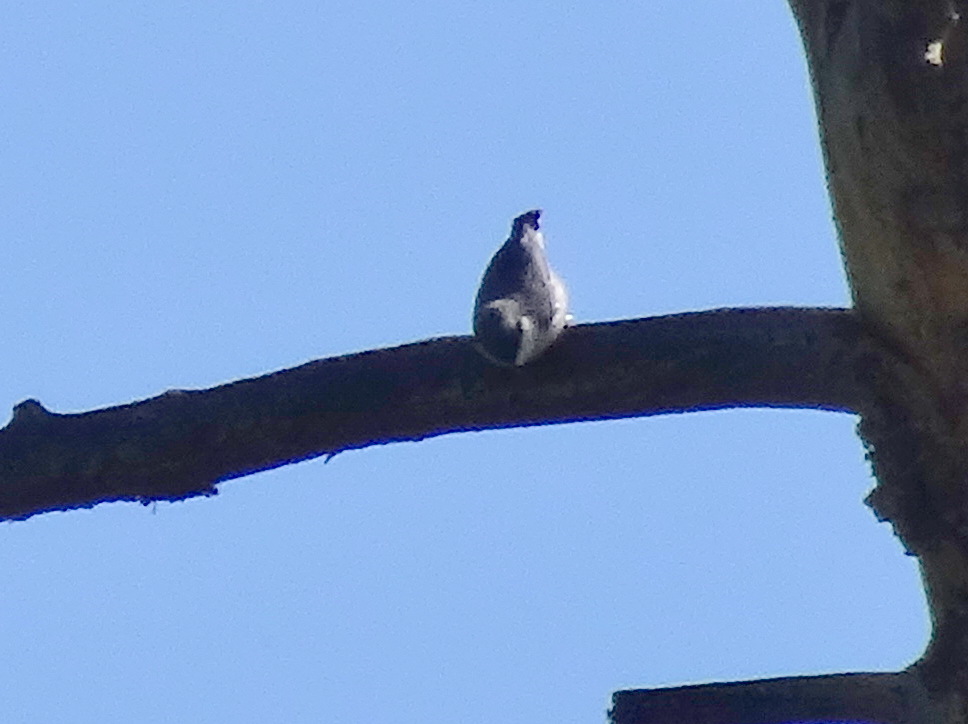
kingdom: Animalia
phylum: Chordata
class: Aves
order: Passeriformes
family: Sittidae
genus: Sitta
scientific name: Sitta pygmaea
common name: Pygmy nuthatch
